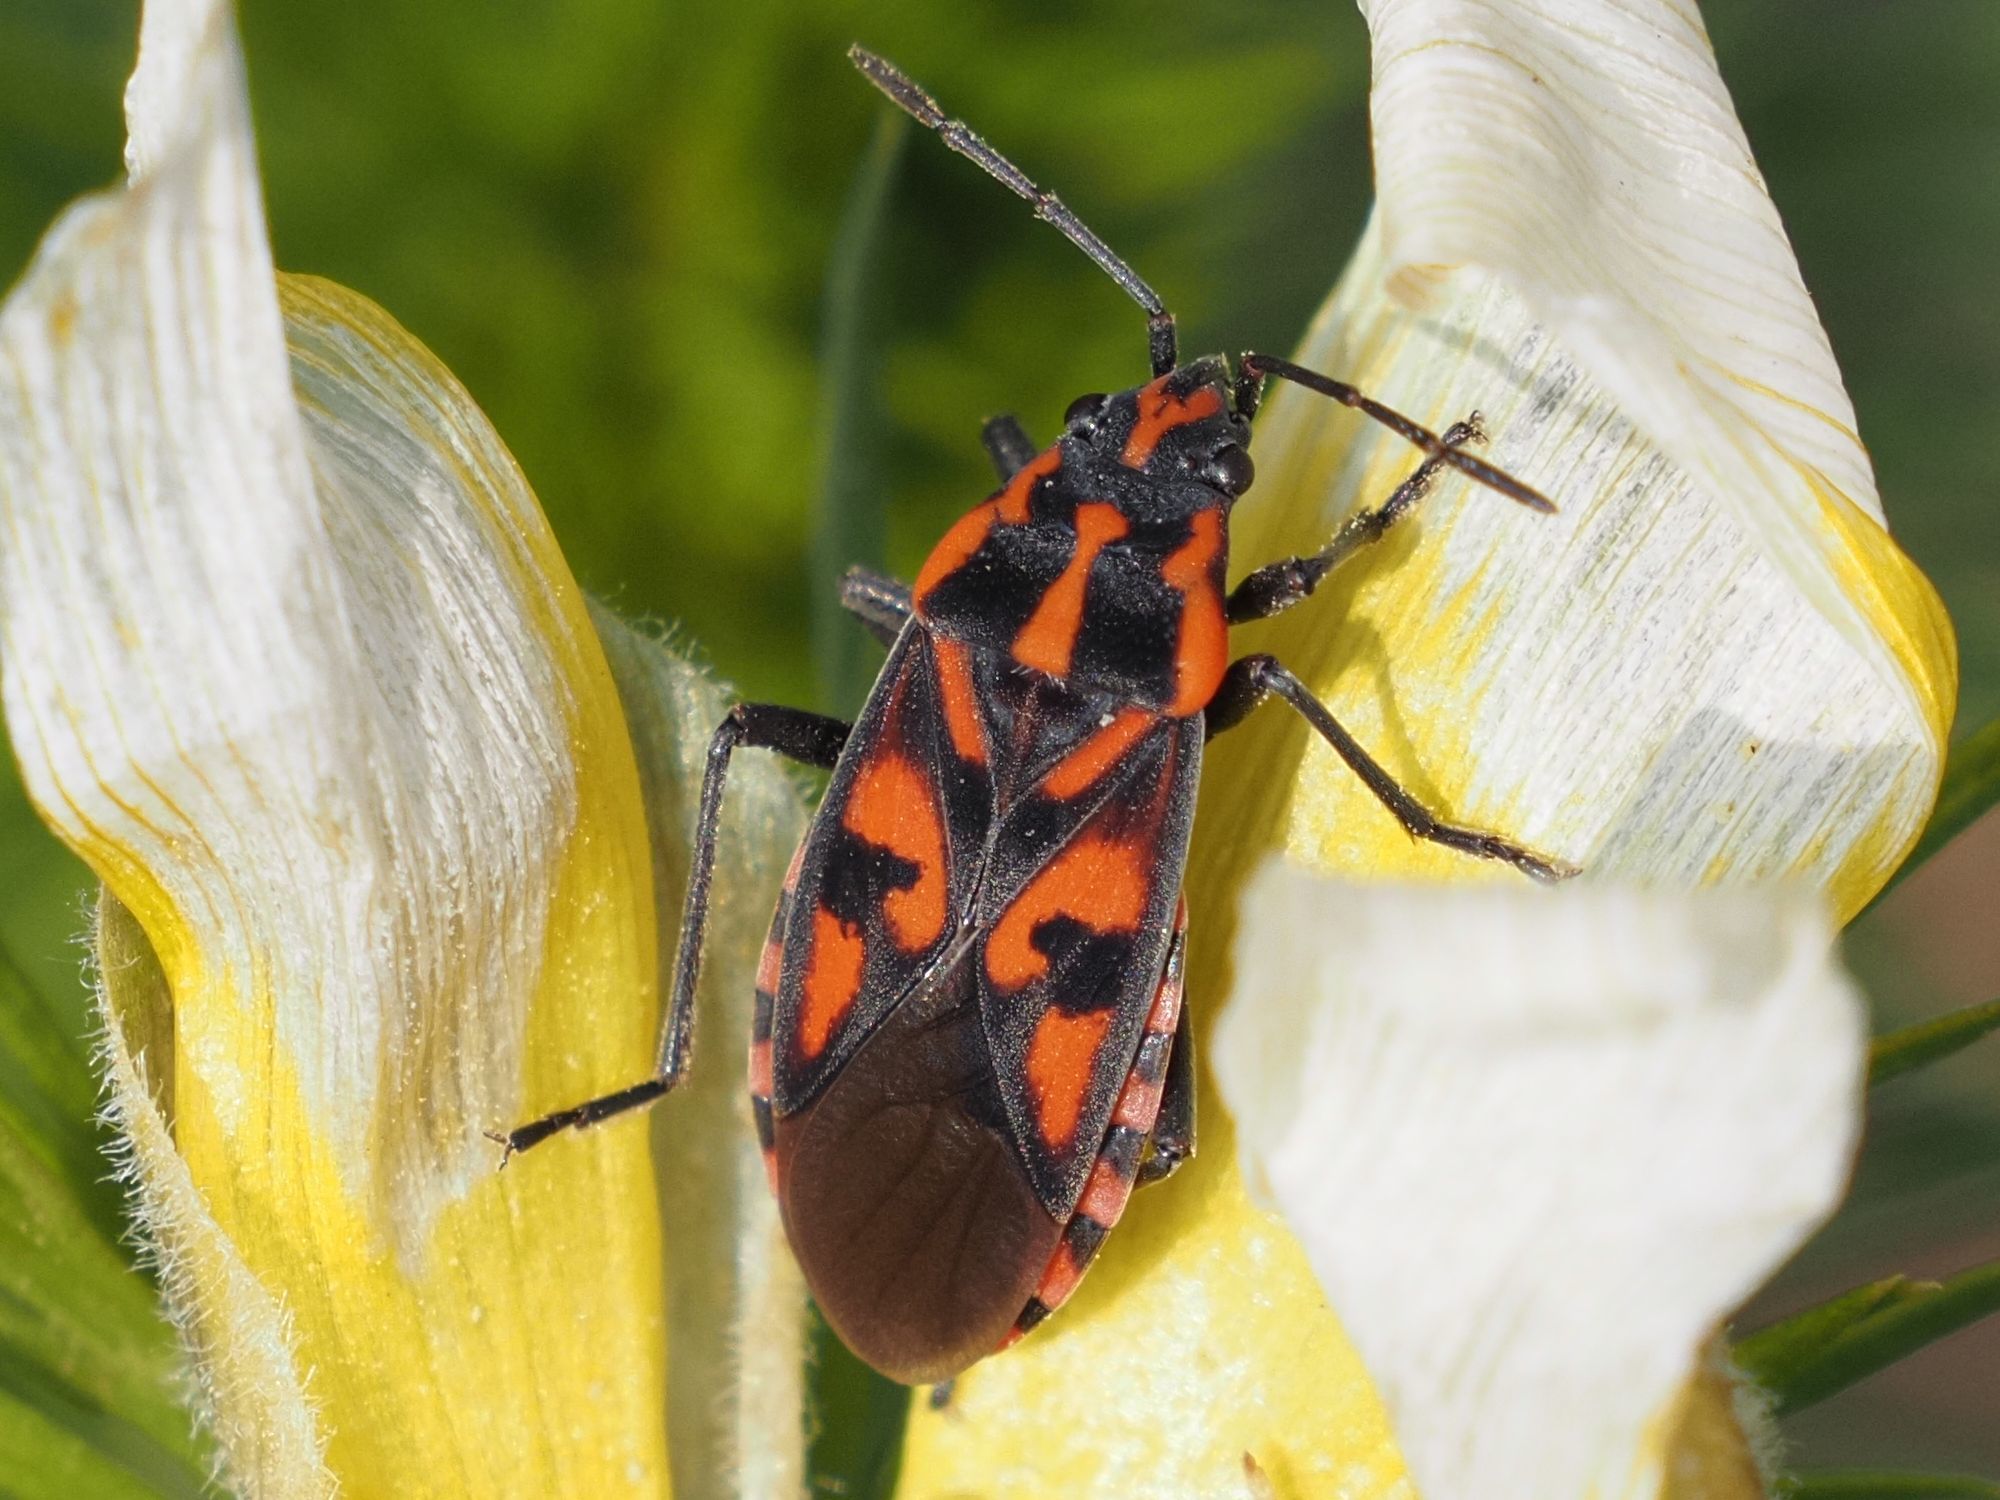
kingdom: Animalia
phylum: Arthropoda
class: Insecta
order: Hemiptera
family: Lygaeidae
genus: Spilostethus
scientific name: Spilostethus saxatilis
